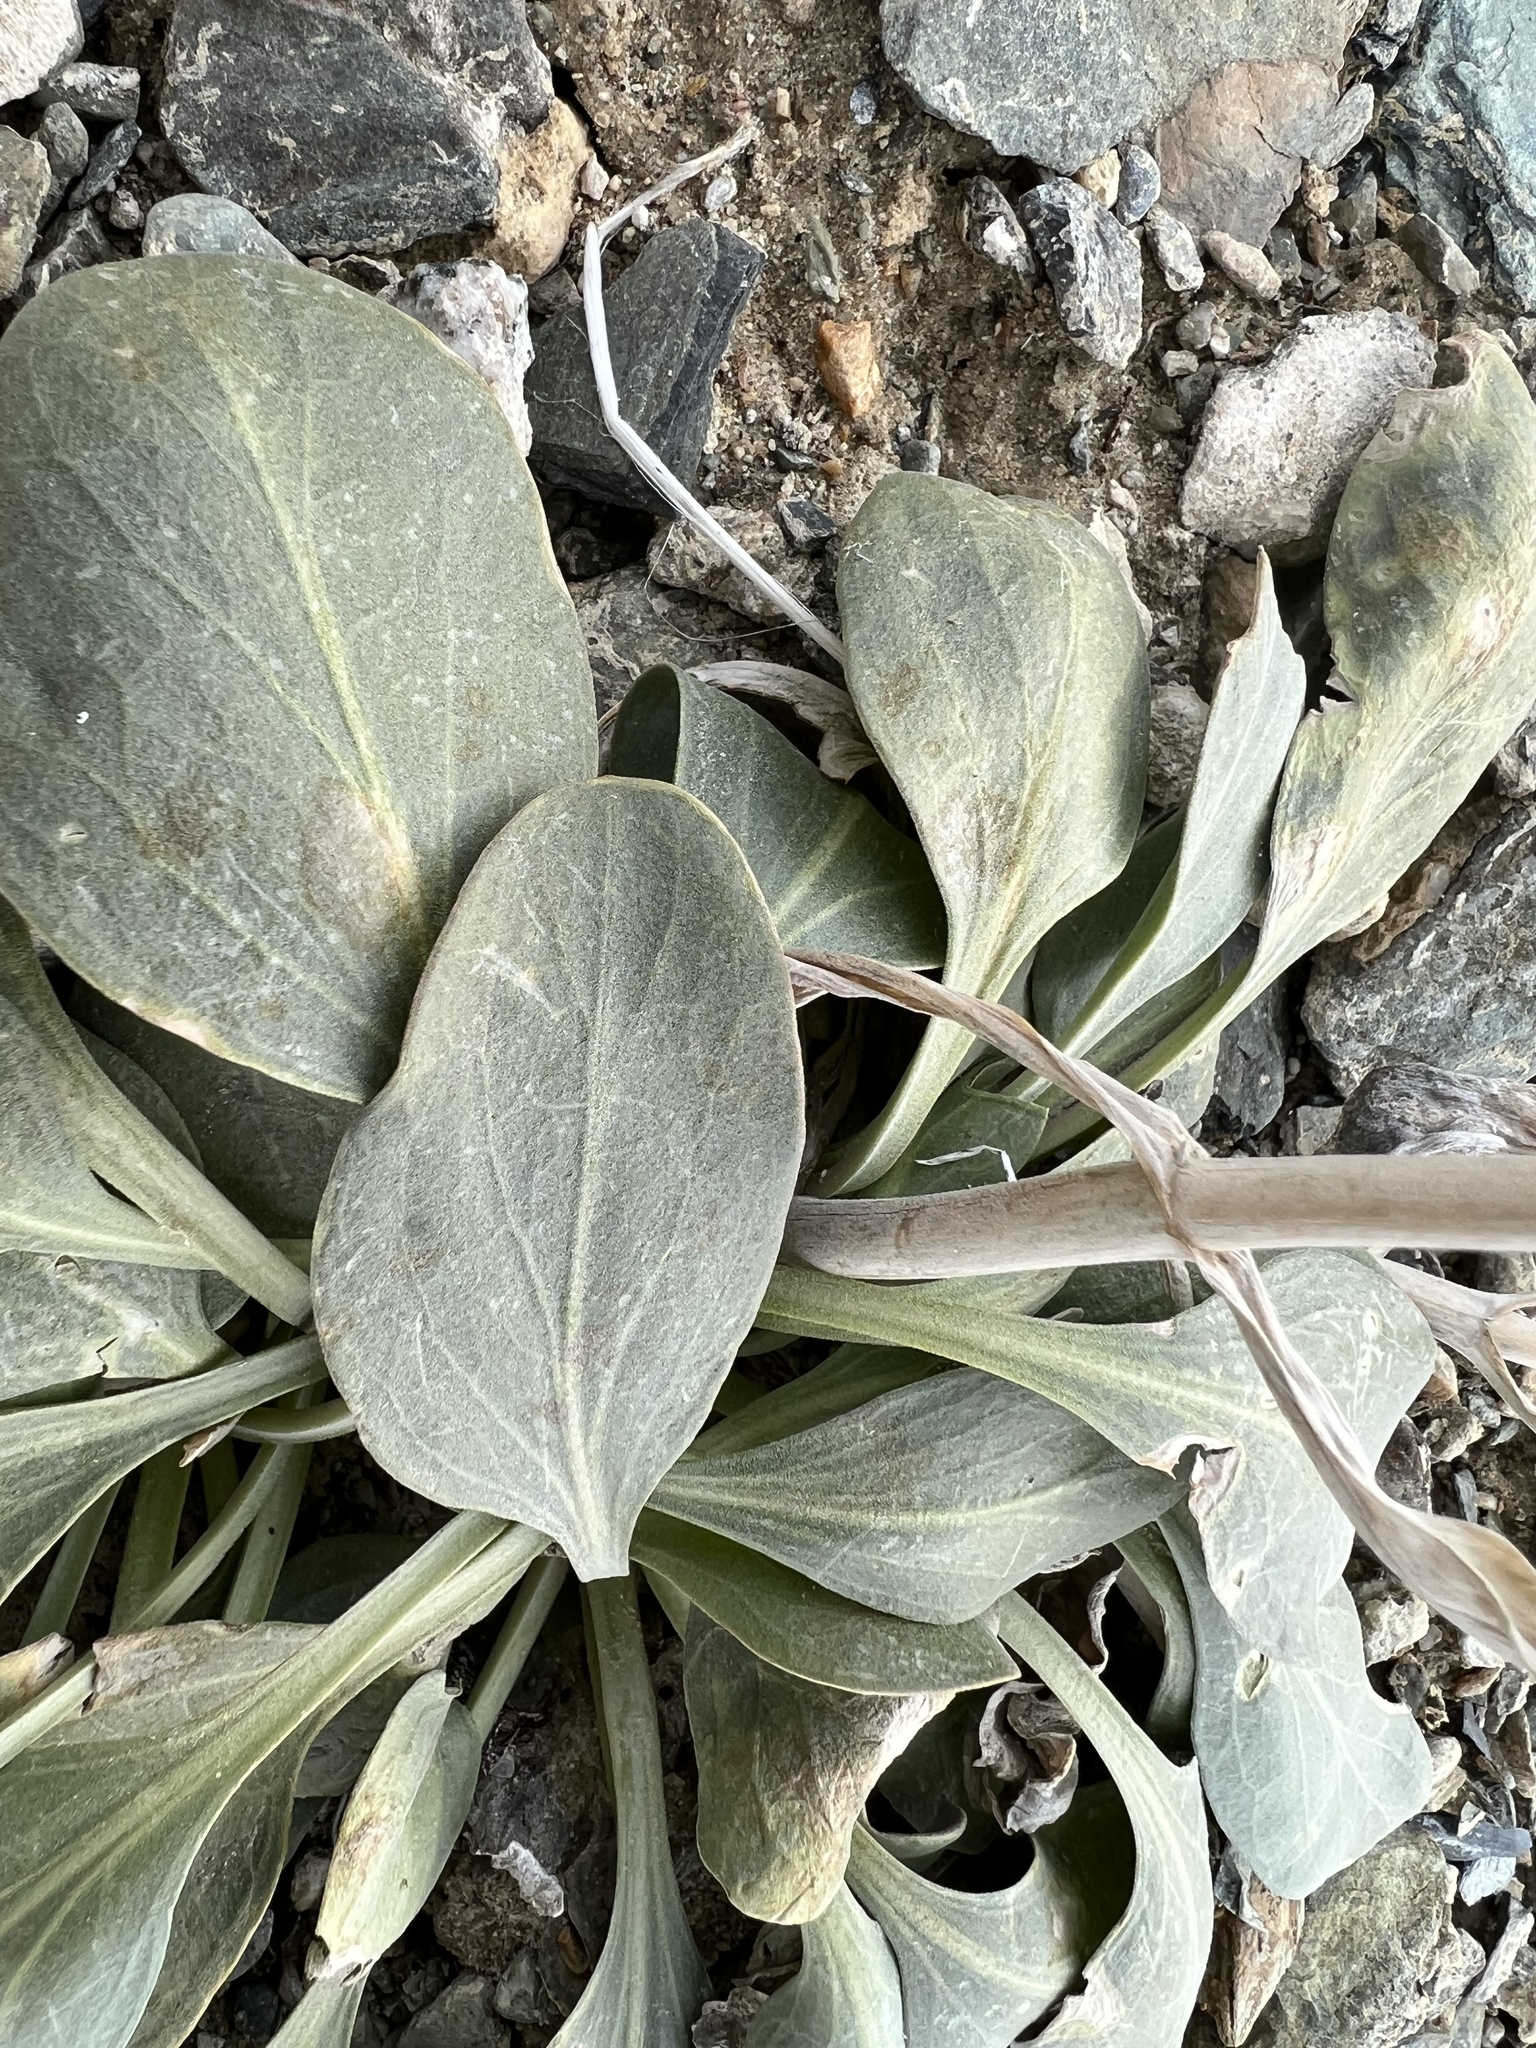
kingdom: Plantae
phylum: Tracheophyta
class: Magnoliopsida
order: Lamiales
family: Plantaginaceae
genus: Penstemon
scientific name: Penstemon monoensis
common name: Mono penstemon
